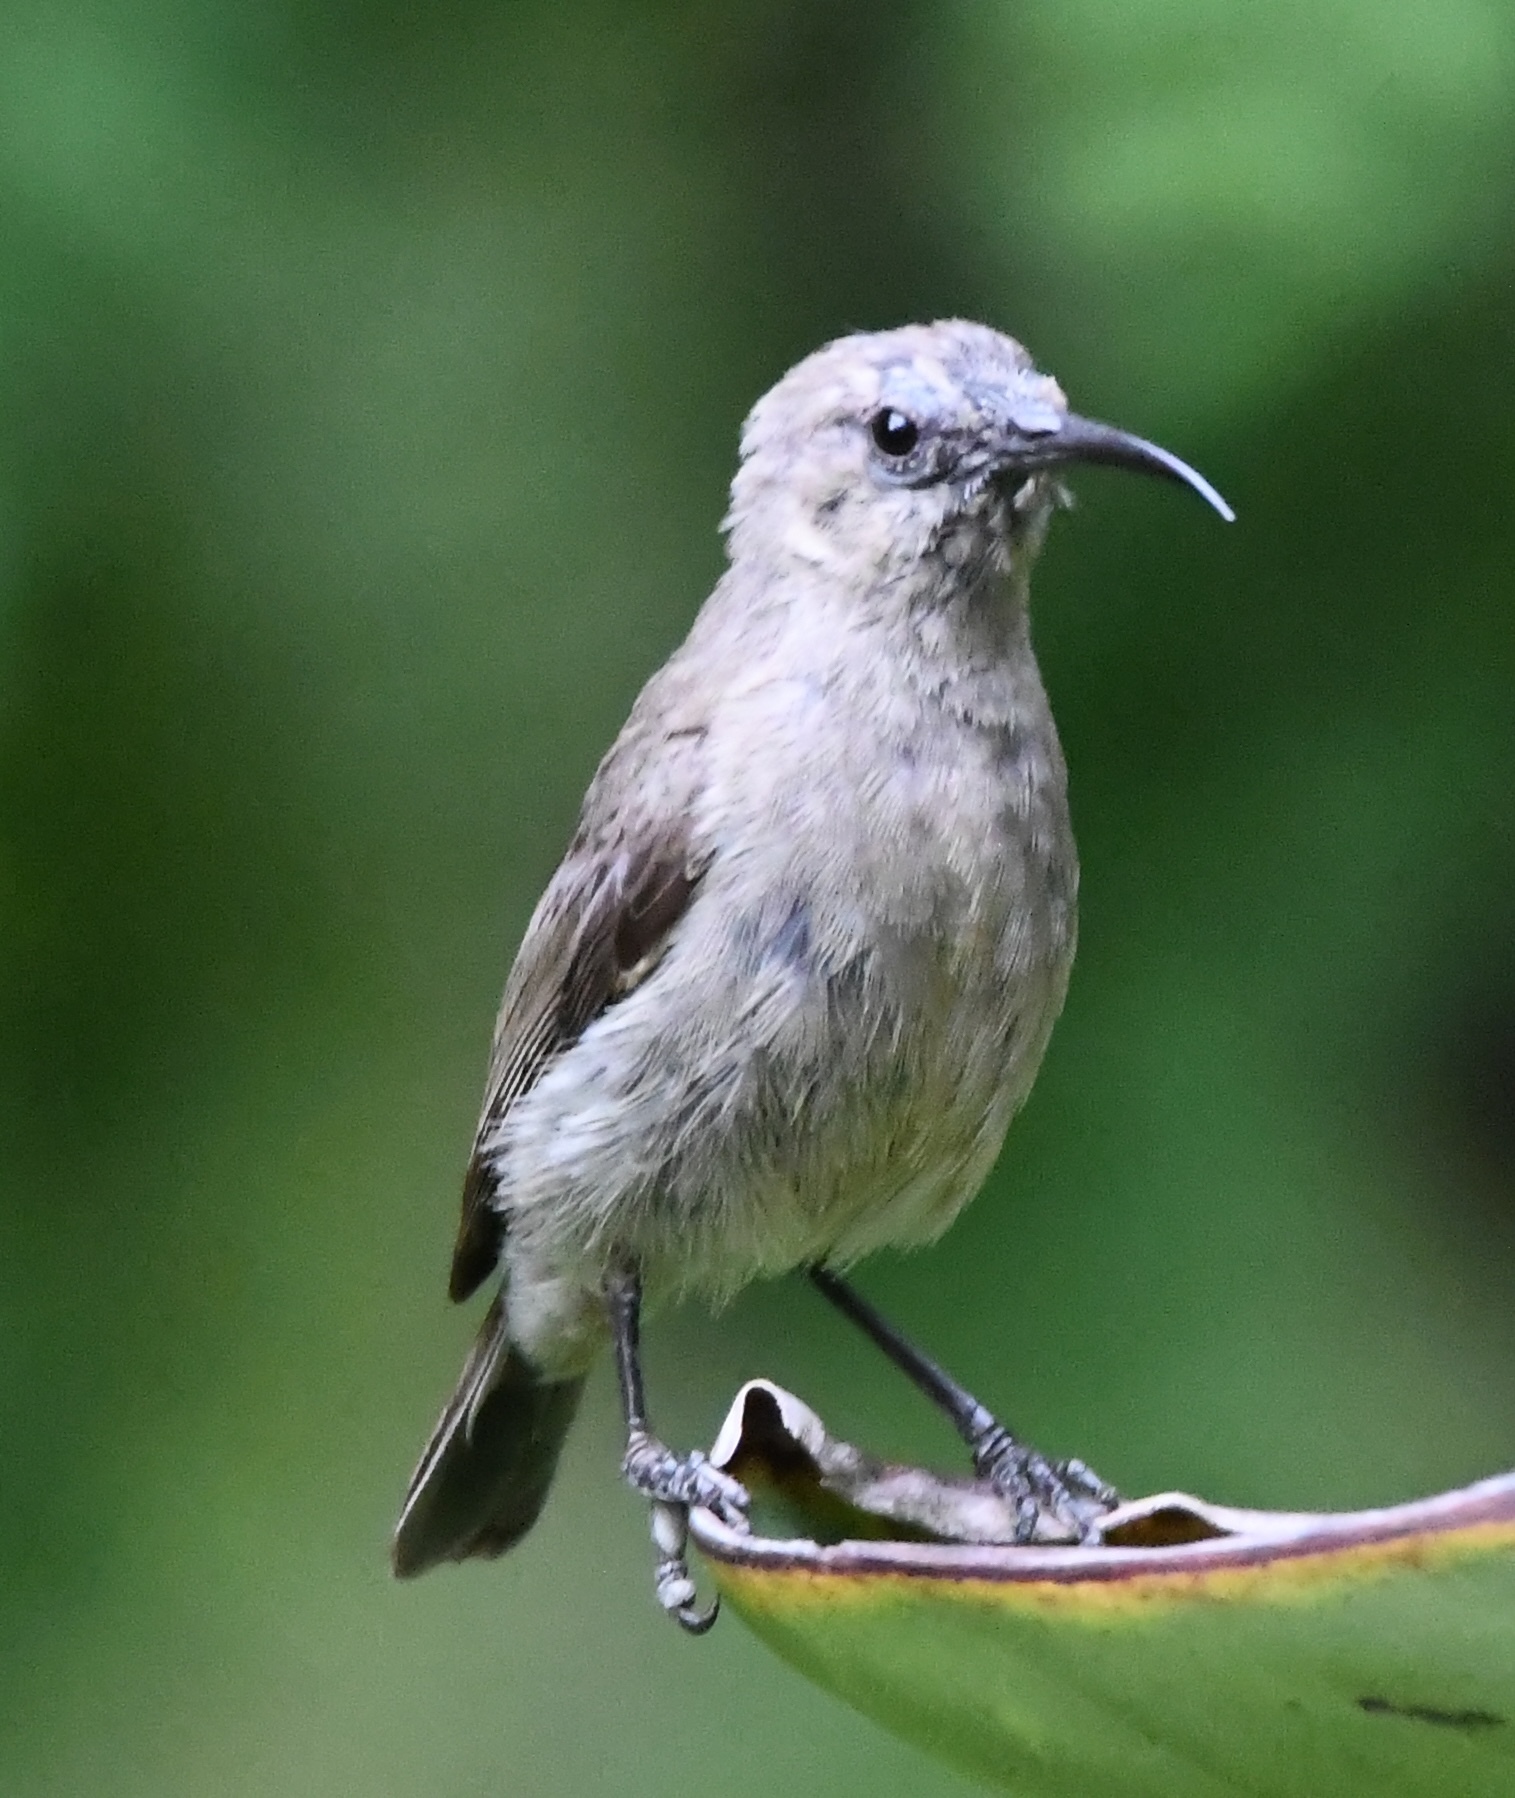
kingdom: Animalia
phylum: Chordata
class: Aves
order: Passeriformes
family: Nectariniidae
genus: Cinnyris
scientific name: Cinnyris chalybeus
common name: Southern double-collared sunbird
